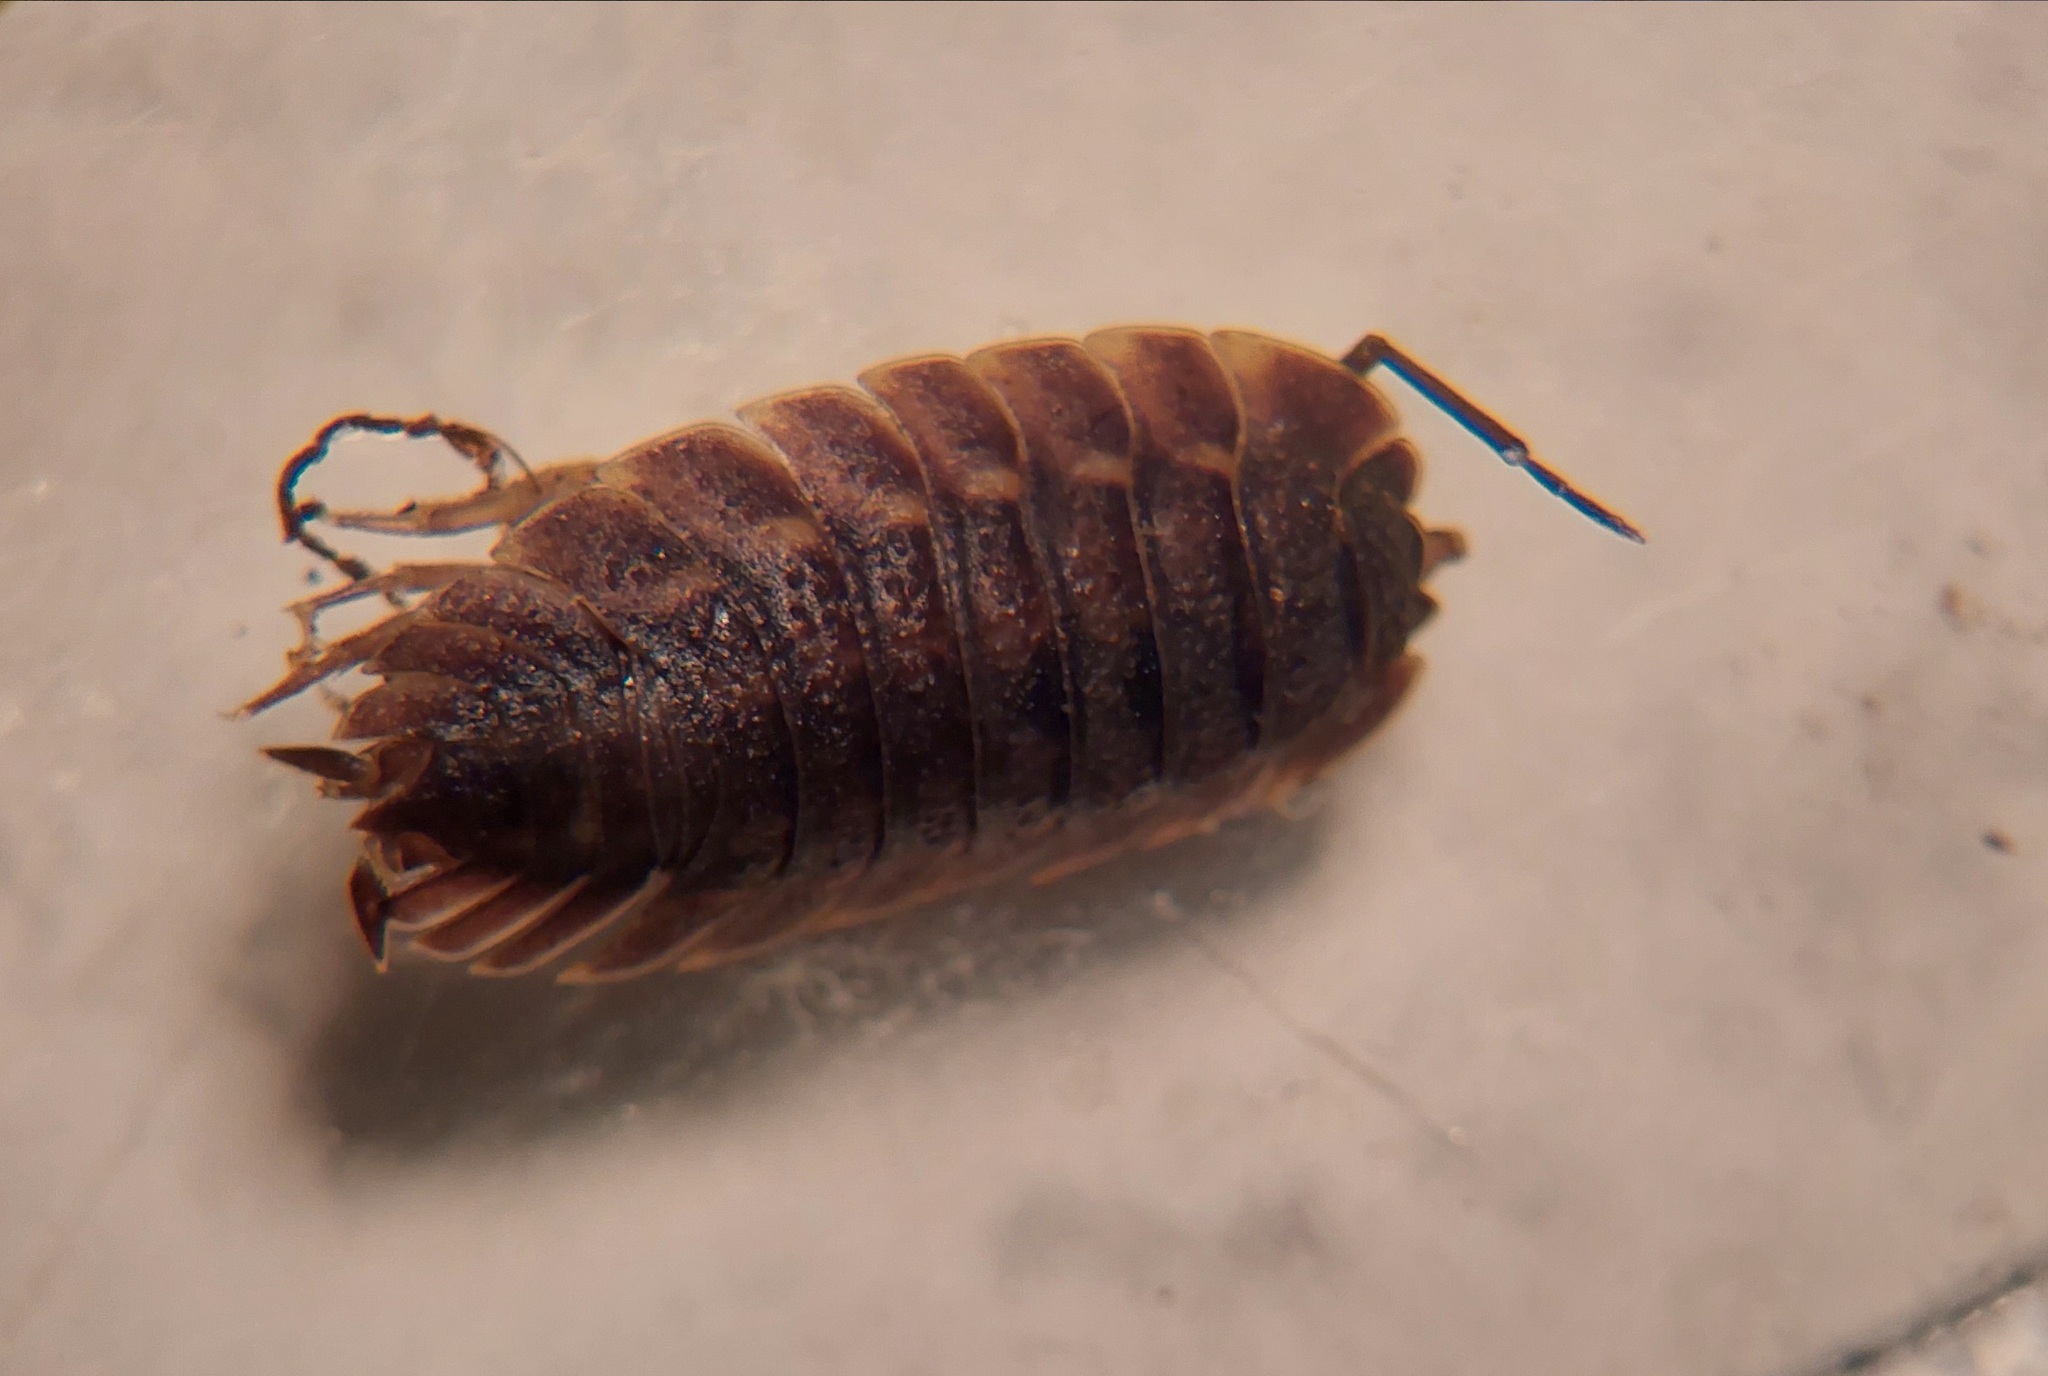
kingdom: Animalia
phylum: Arthropoda
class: Malacostraca
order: Isopoda
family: Trachelipodidae
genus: Trachelipus
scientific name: Trachelipus ratzeburgii
